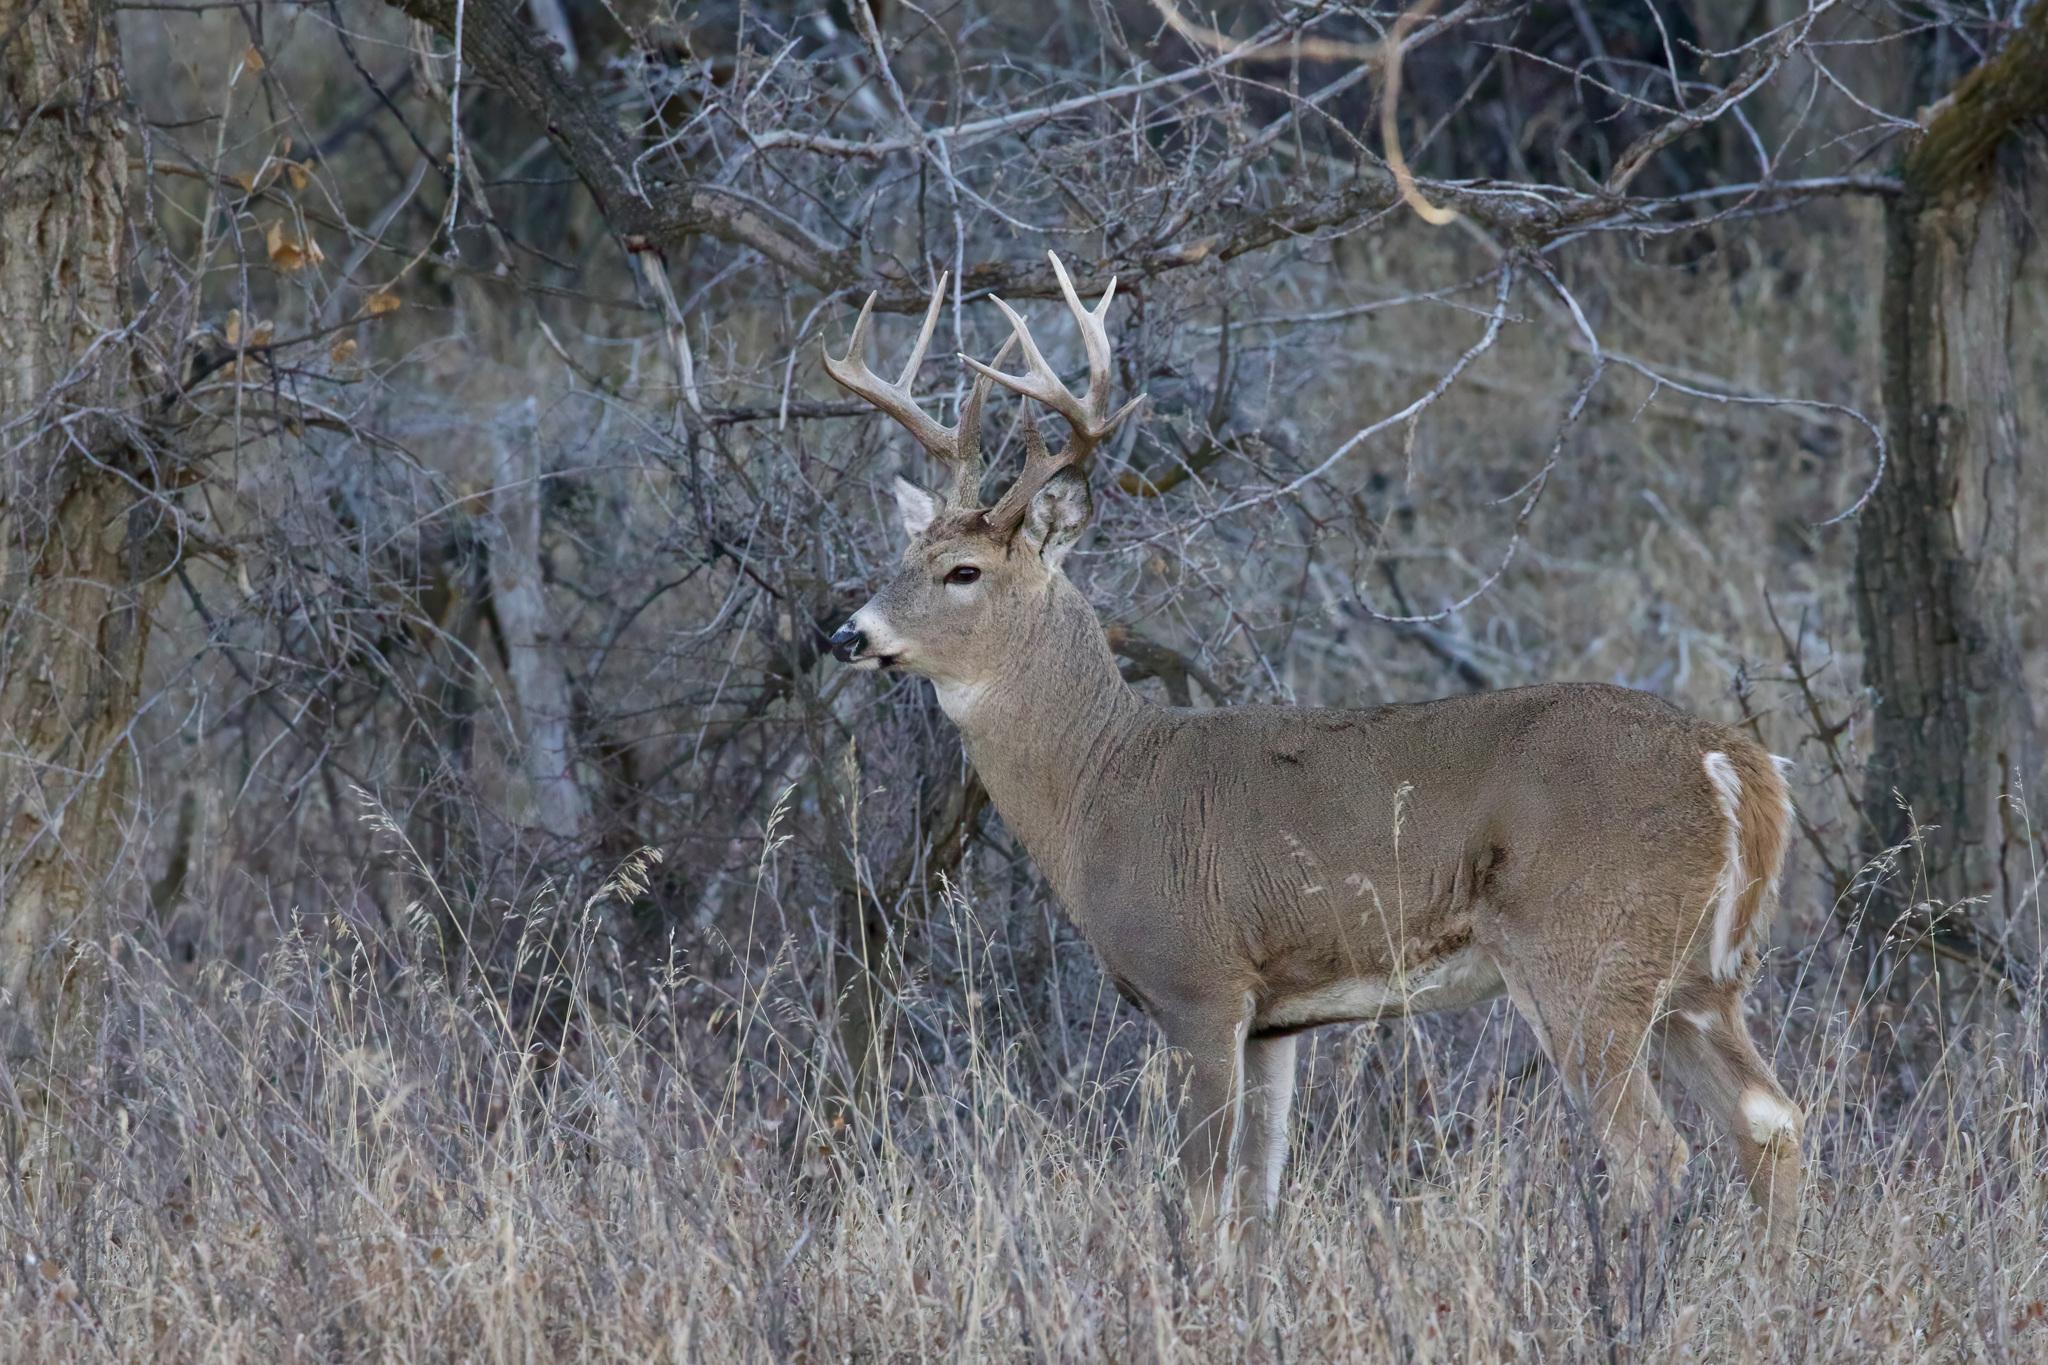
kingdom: Animalia
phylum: Chordata
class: Mammalia
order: Artiodactyla
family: Cervidae
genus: Odocoileus
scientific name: Odocoileus virginianus
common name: White-tailed deer
